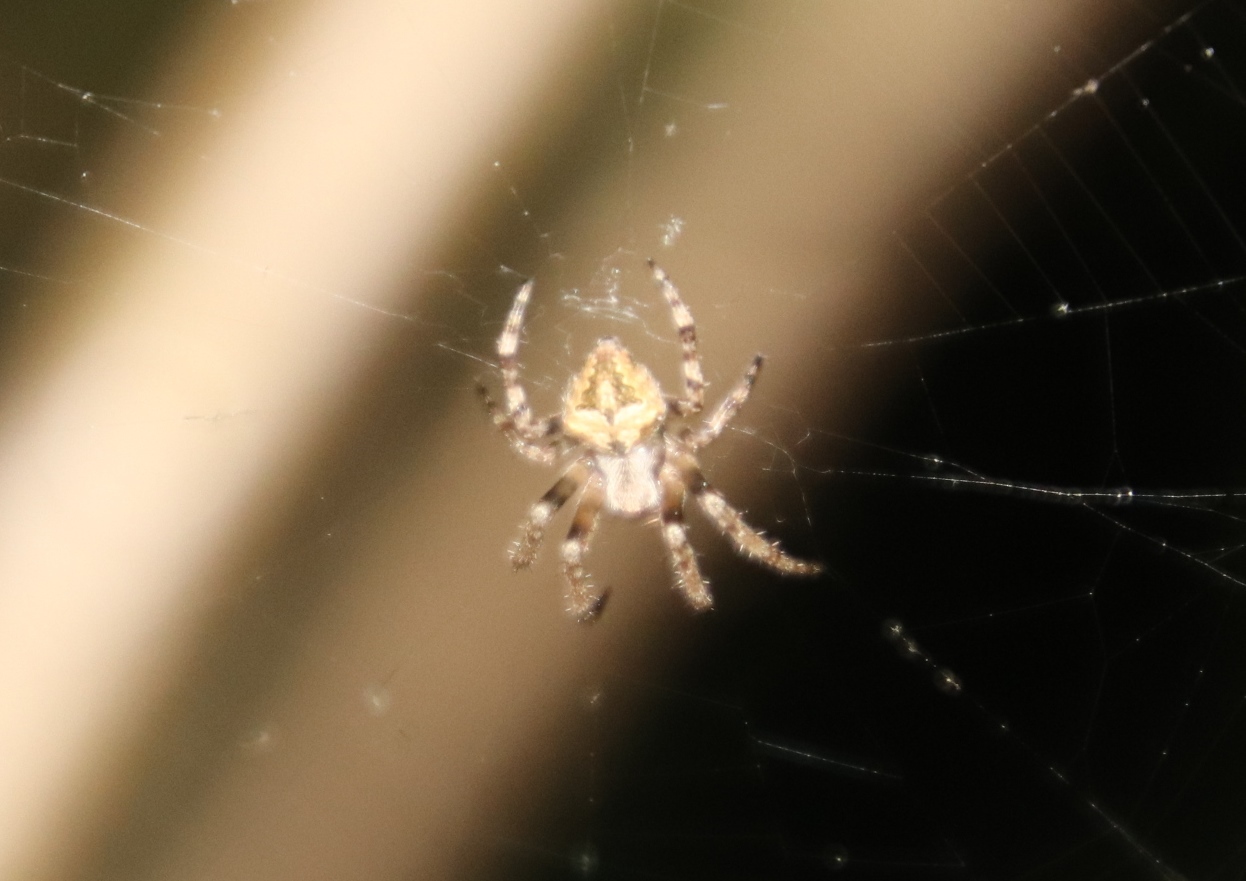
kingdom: Animalia
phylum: Arthropoda
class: Arachnida
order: Araneae
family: Araneidae
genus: Neoscona
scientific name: Neoscona subfusca
